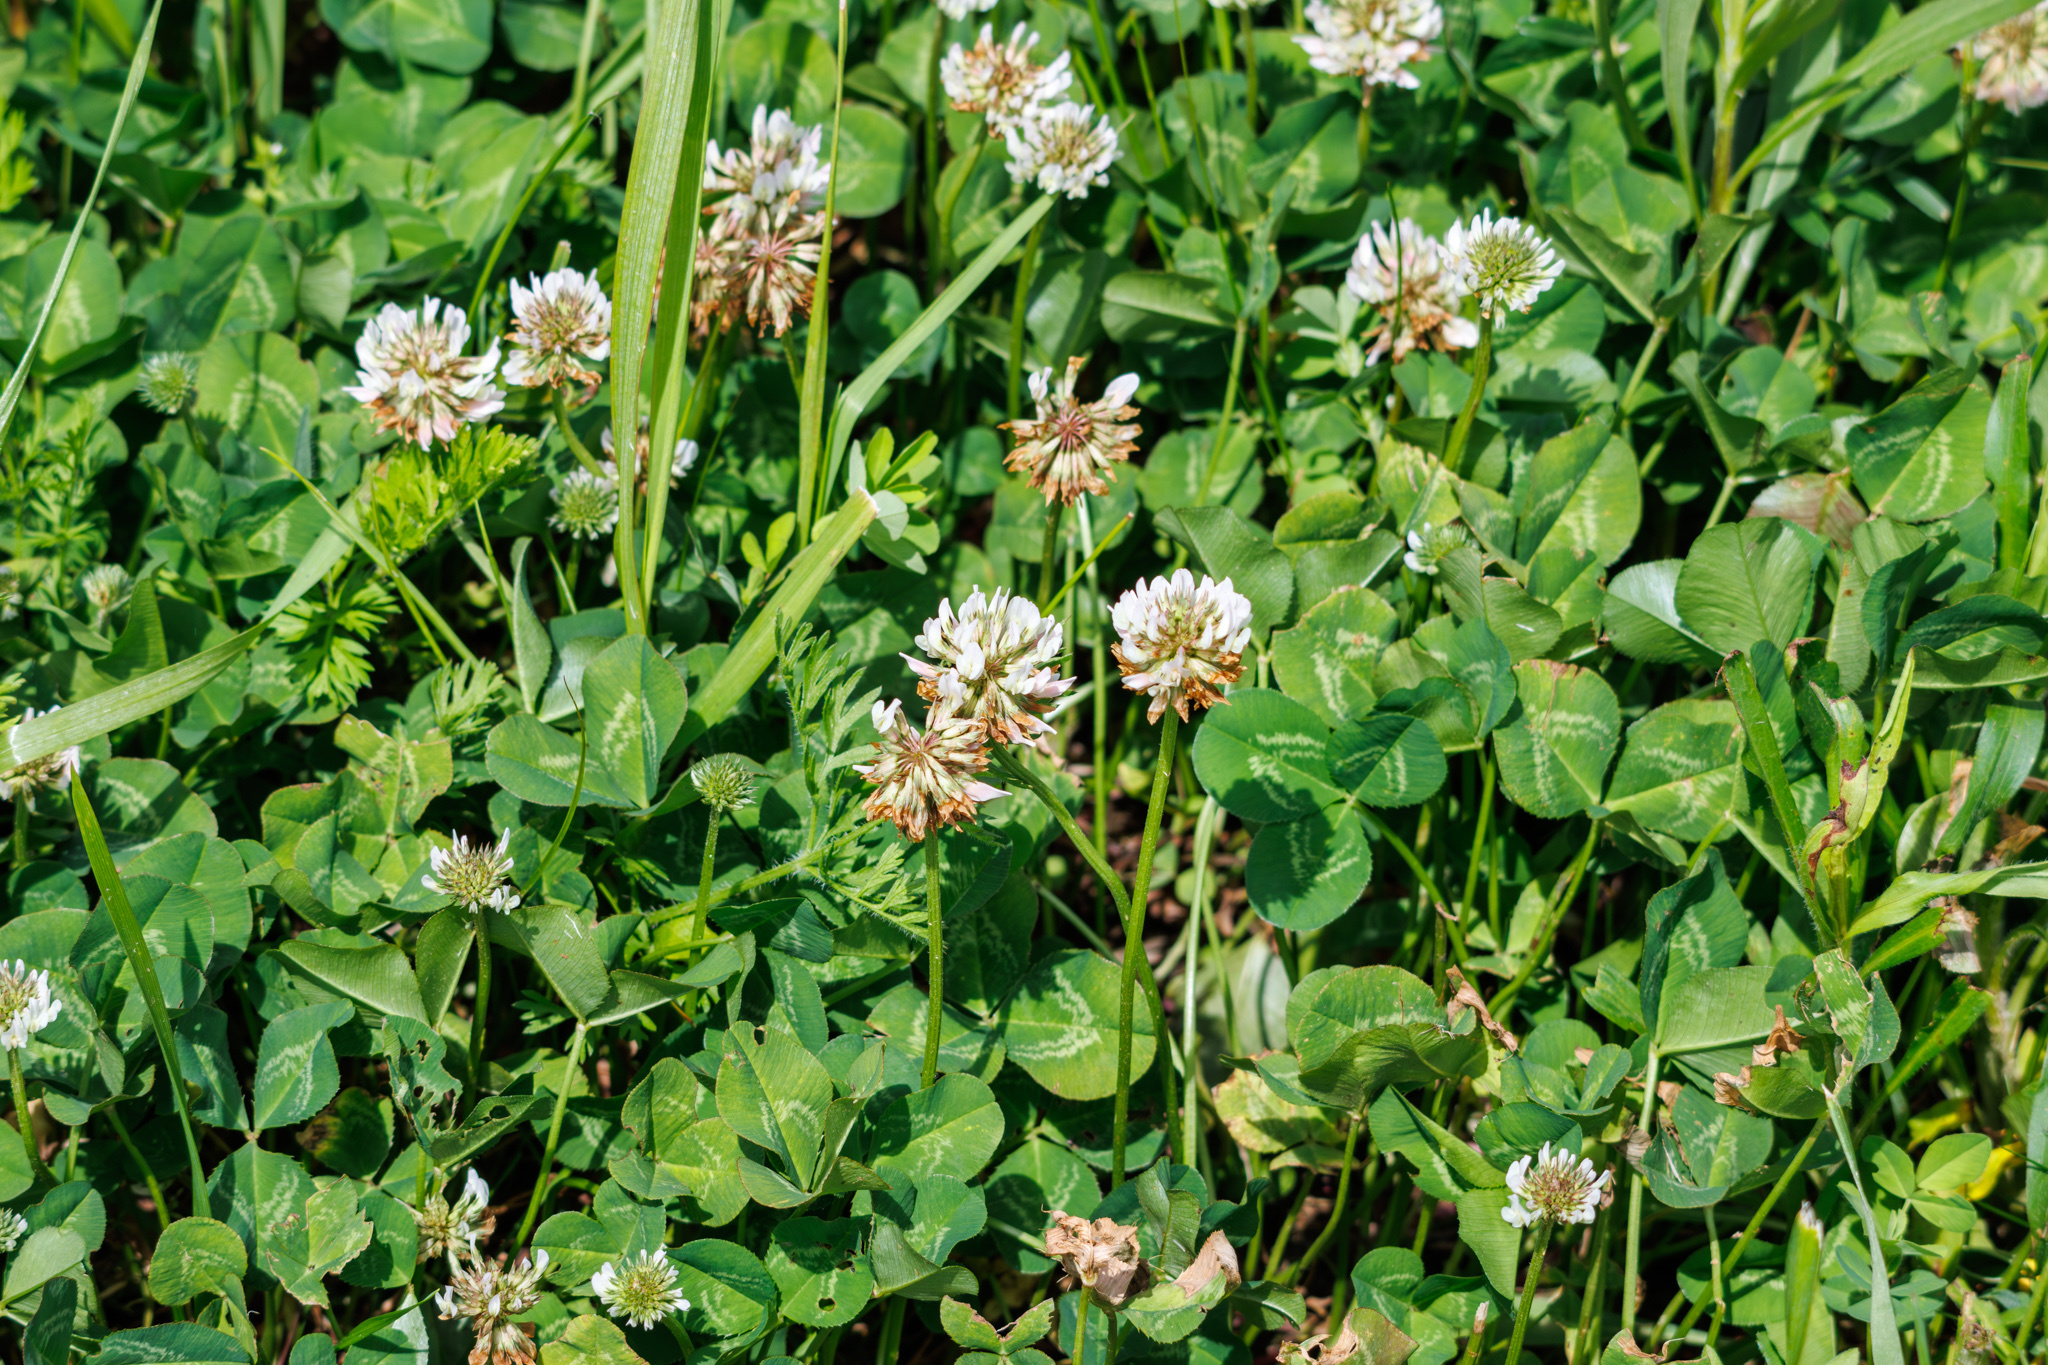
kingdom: Plantae
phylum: Tracheophyta
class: Magnoliopsida
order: Fabales
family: Fabaceae
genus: Trifolium
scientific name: Trifolium repens
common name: White clover
